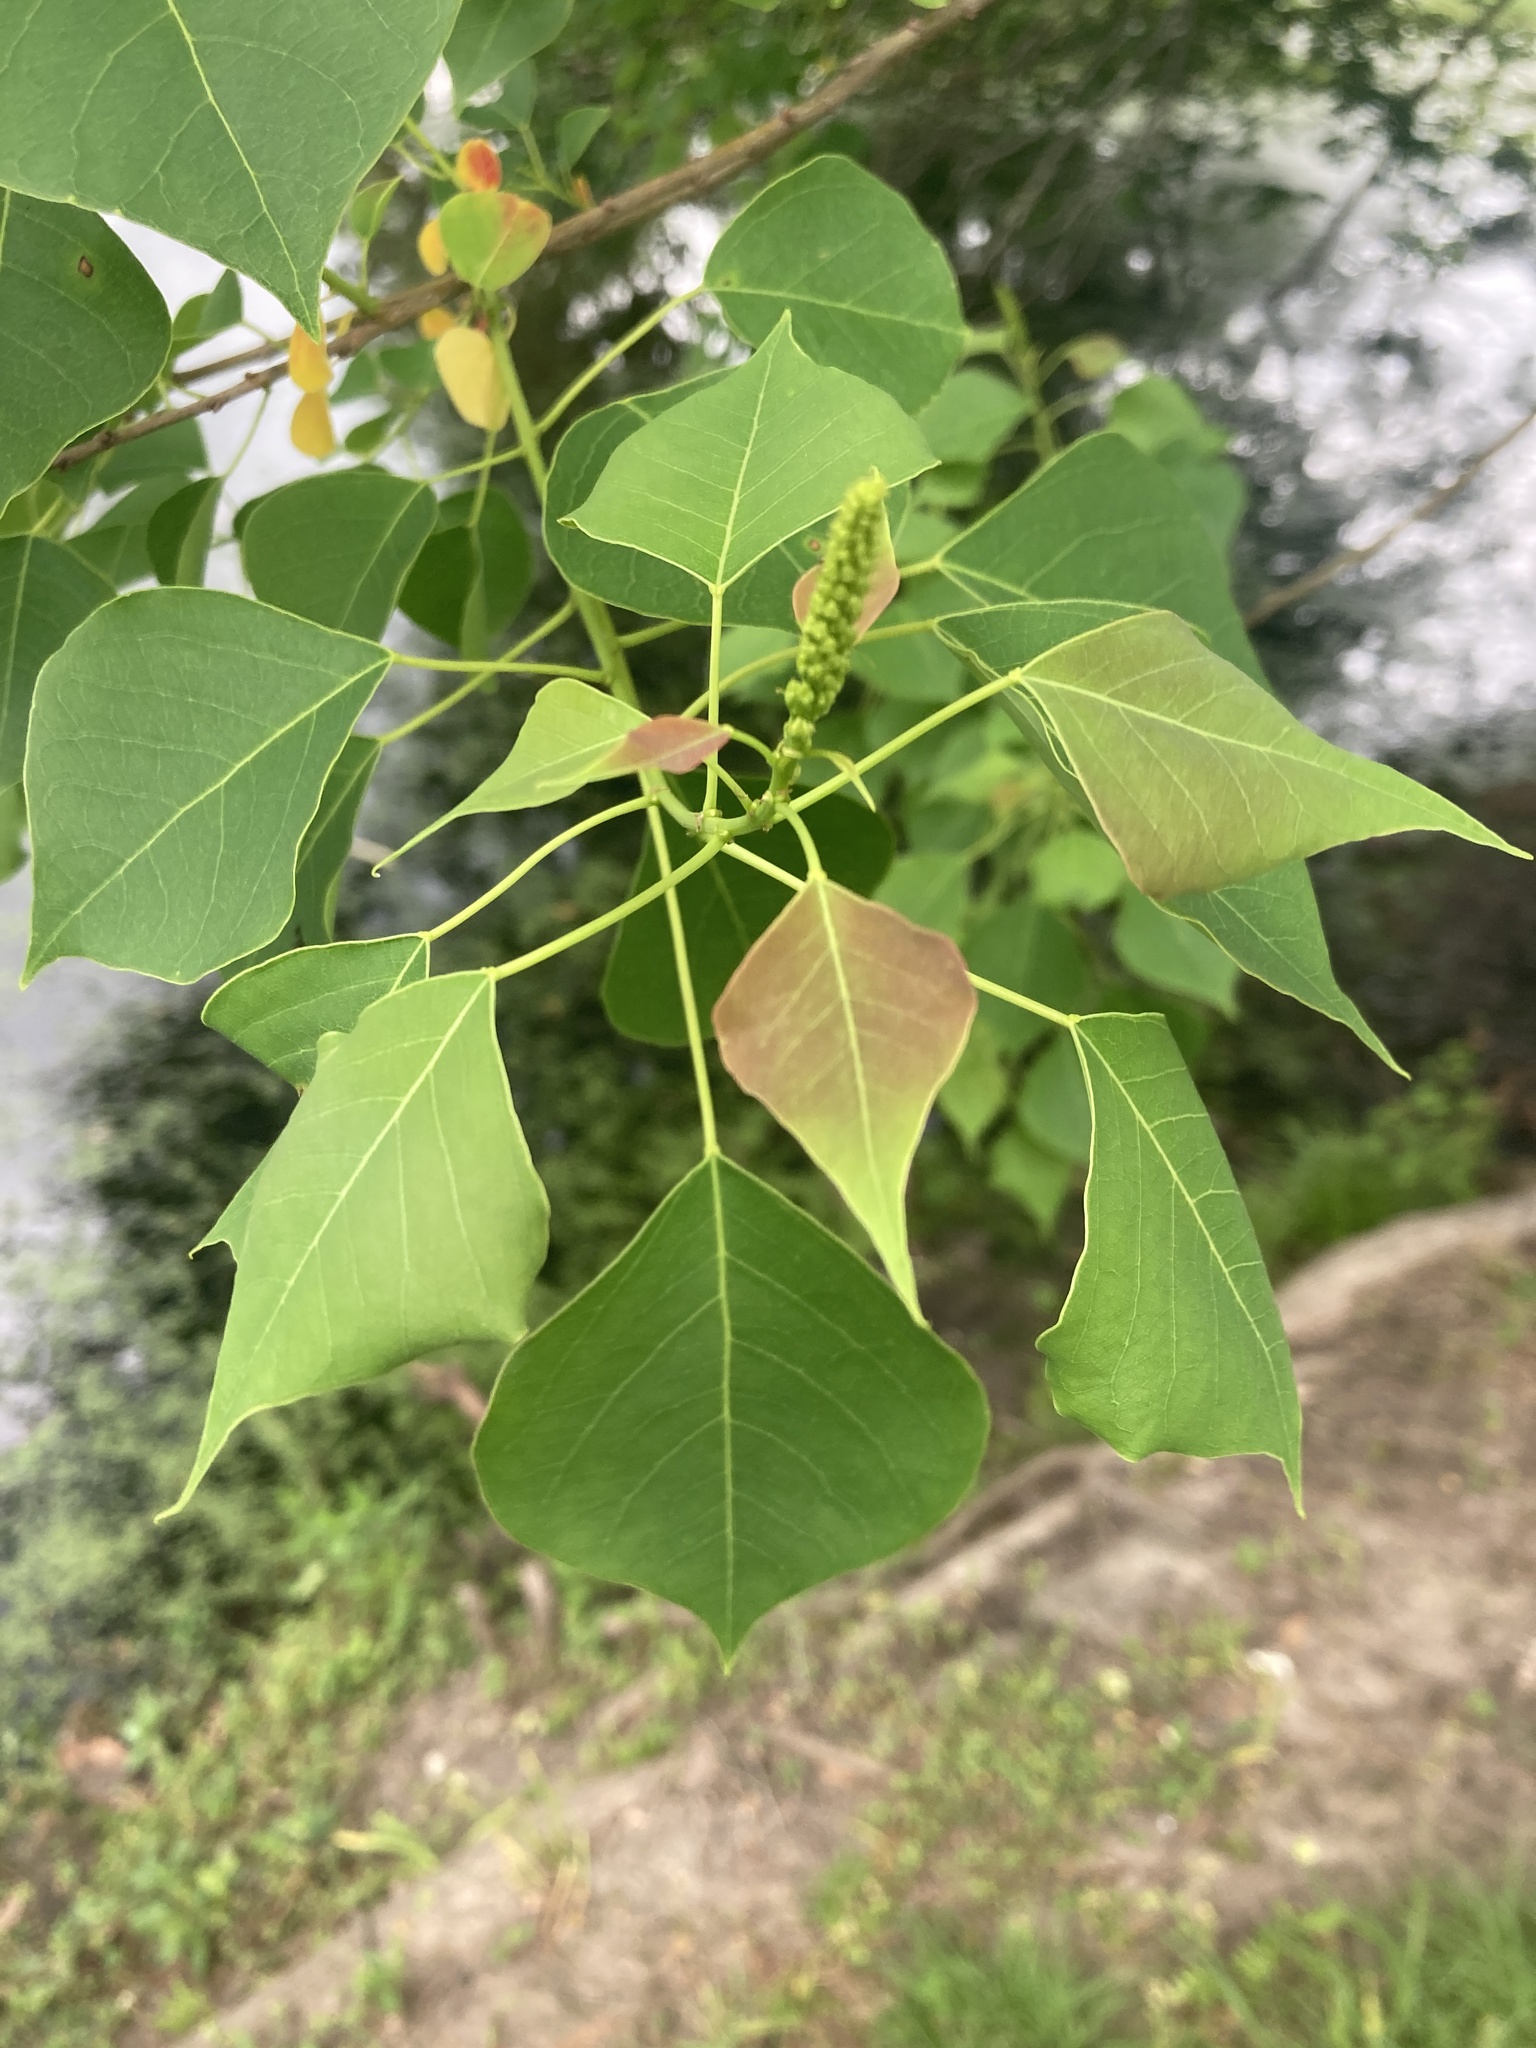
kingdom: Plantae
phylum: Tracheophyta
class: Magnoliopsida
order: Malpighiales
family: Euphorbiaceae
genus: Triadica
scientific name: Triadica sebifera
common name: Chinese tallow
